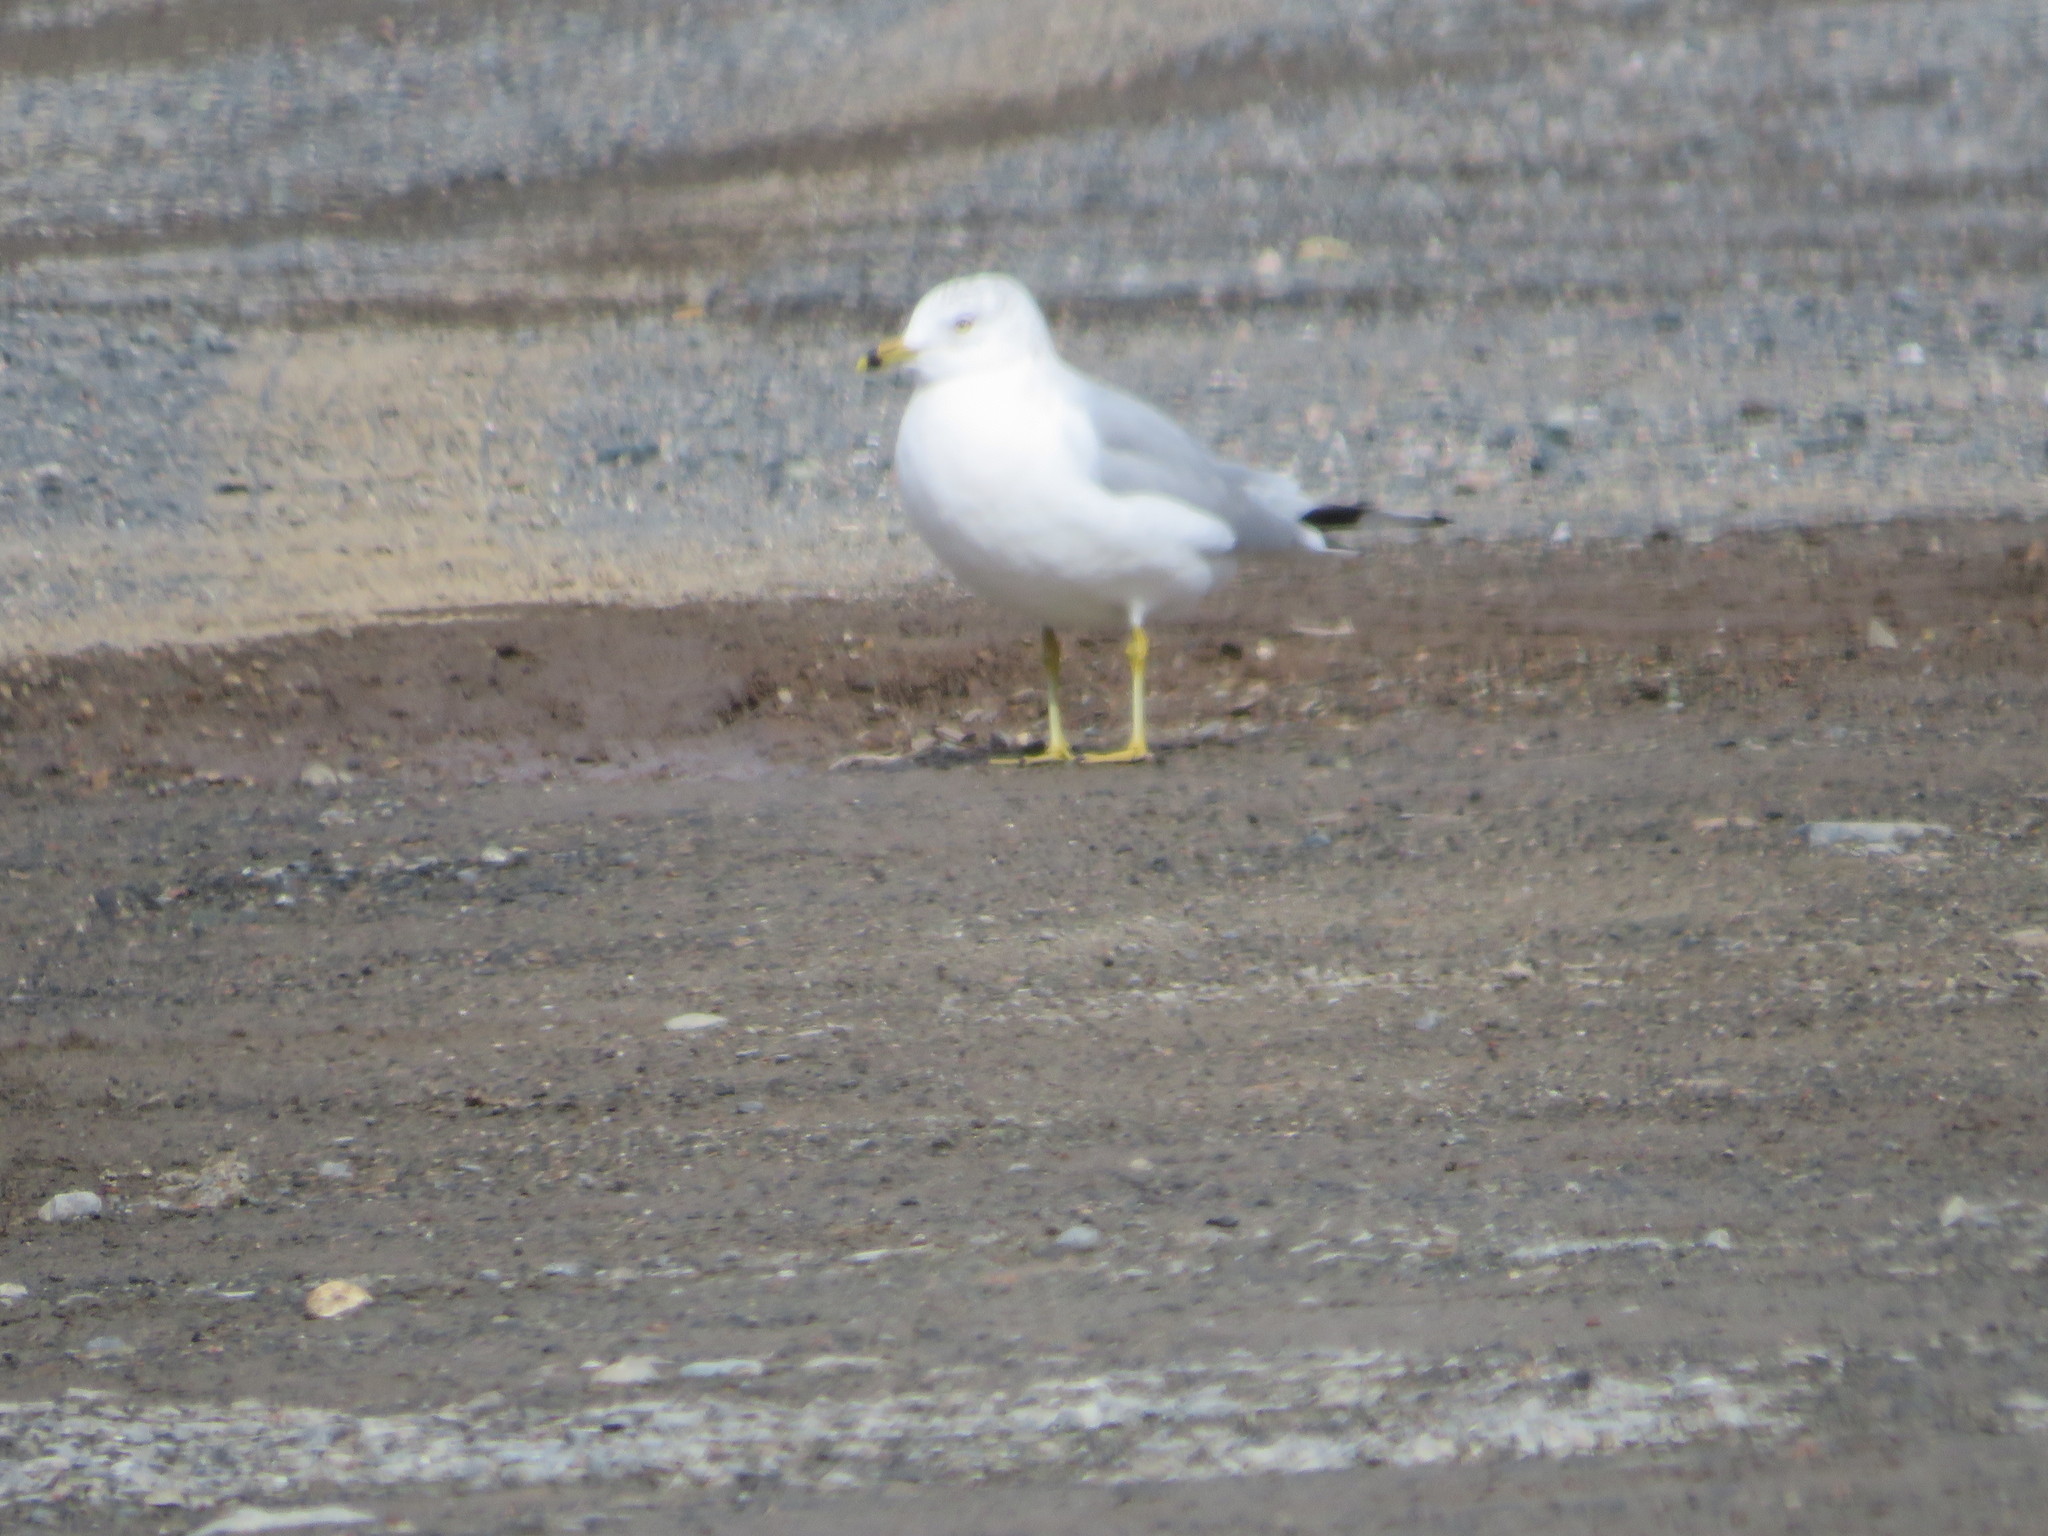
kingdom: Animalia
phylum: Chordata
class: Aves
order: Charadriiformes
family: Laridae
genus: Larus
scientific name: Larus delawarensis
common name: Ring-billed gull
